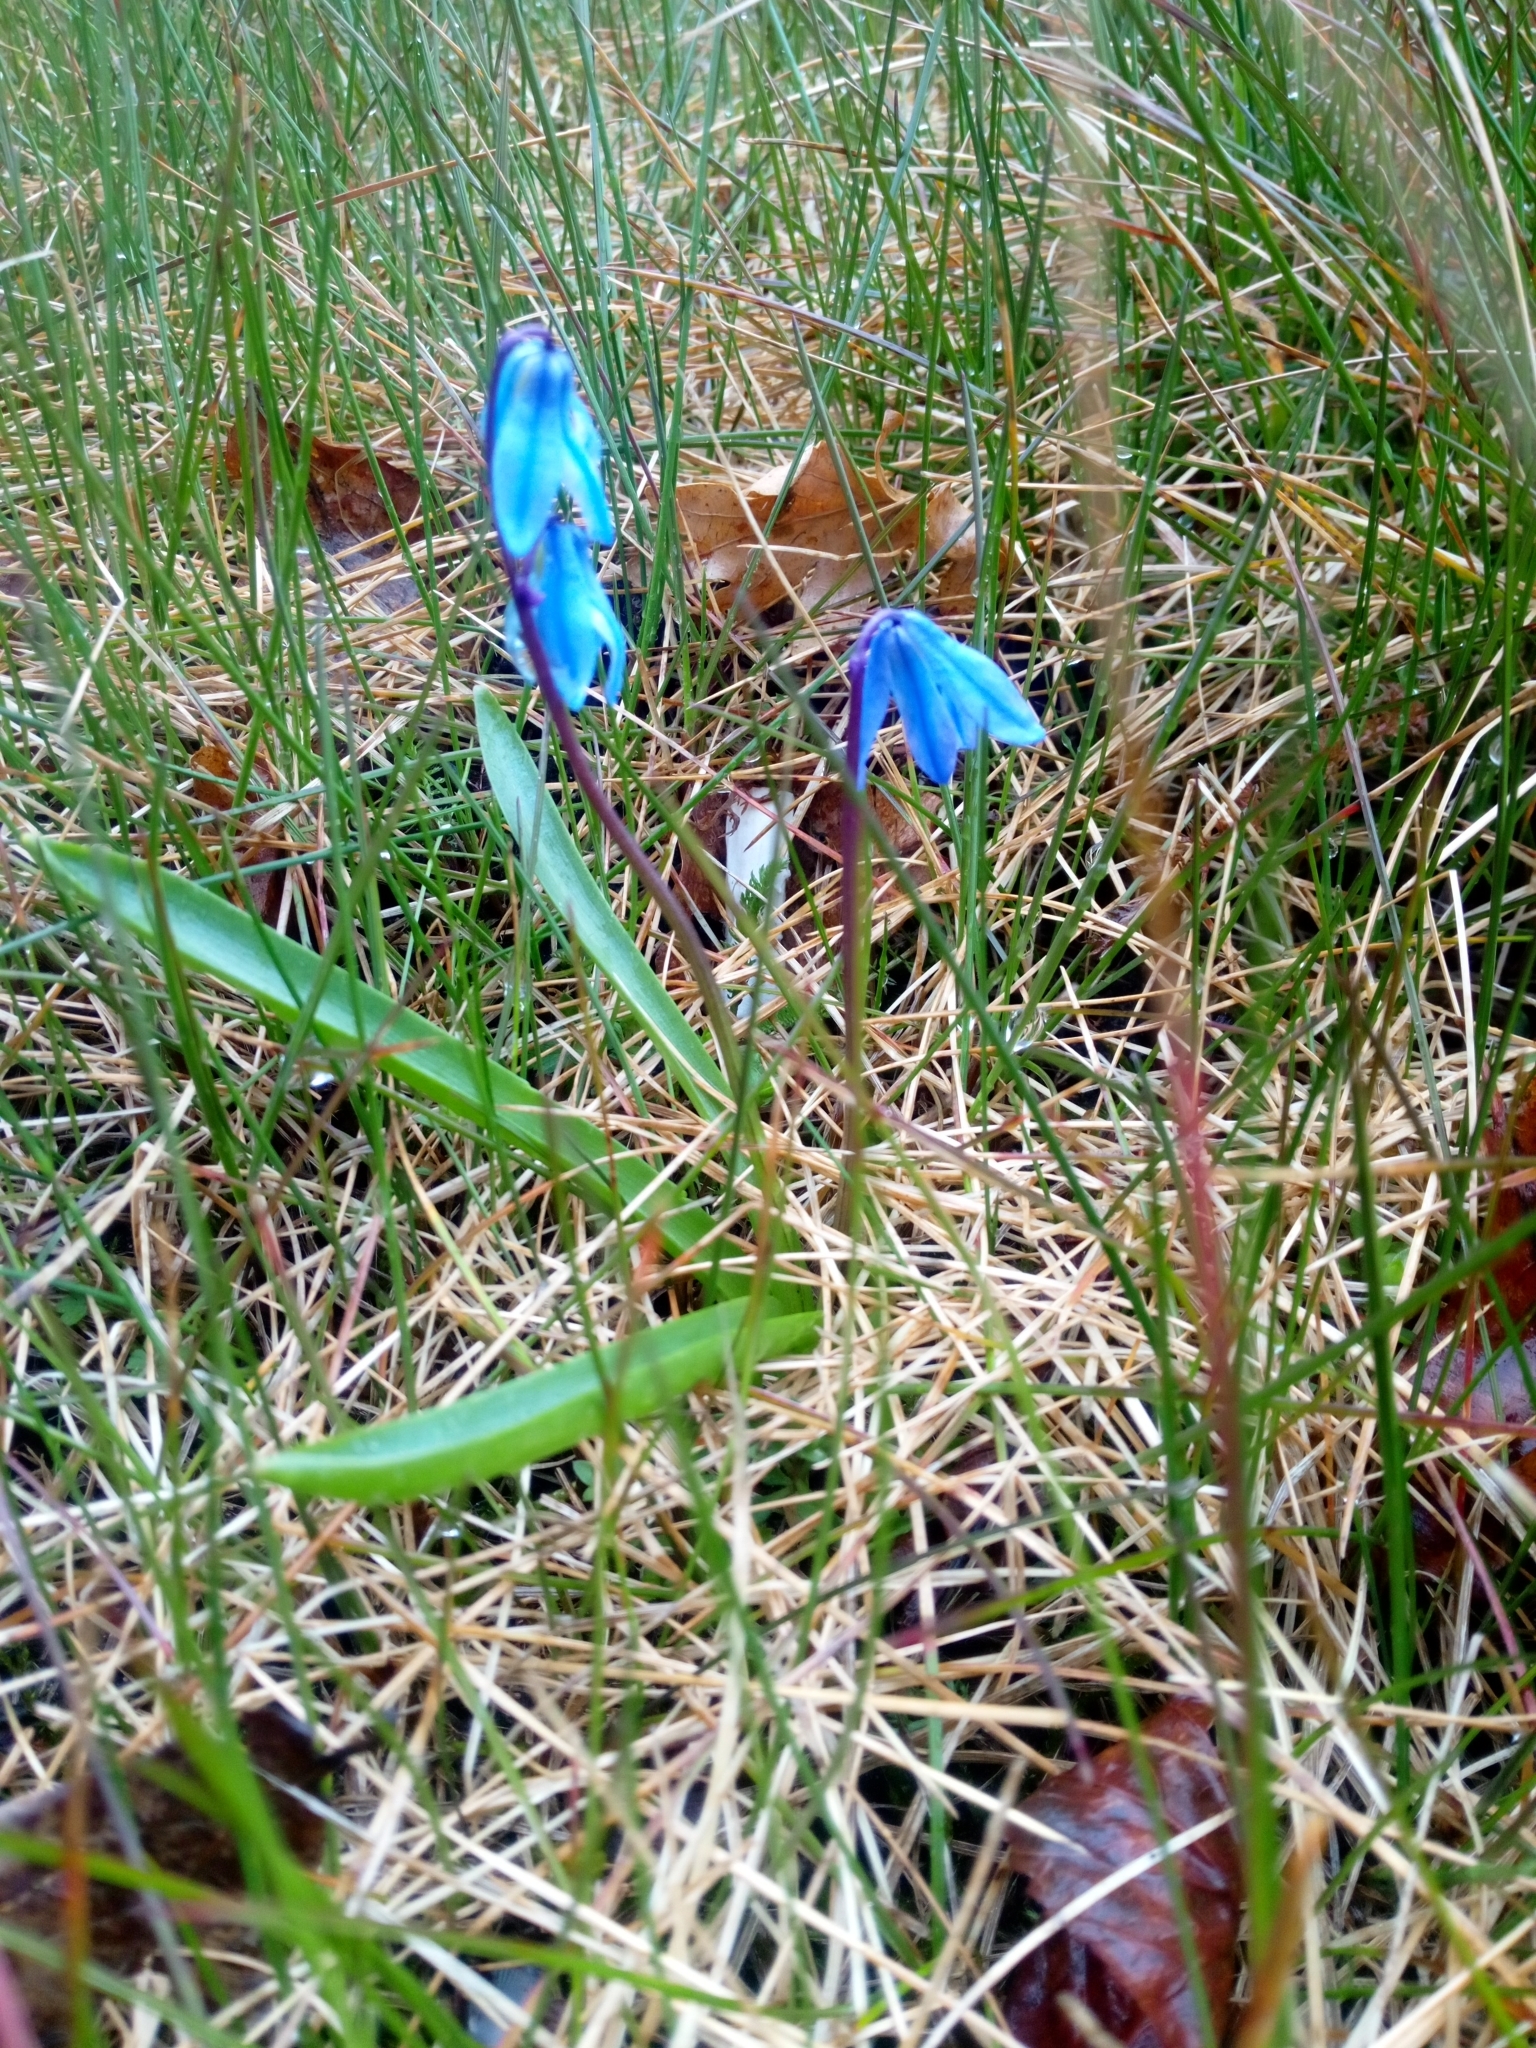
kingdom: Plantae
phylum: Tracheophyta
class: Liliopsida
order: Asparagales
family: Asparagaceae
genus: Scilla
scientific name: Scilla siberica
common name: Siberian squill
